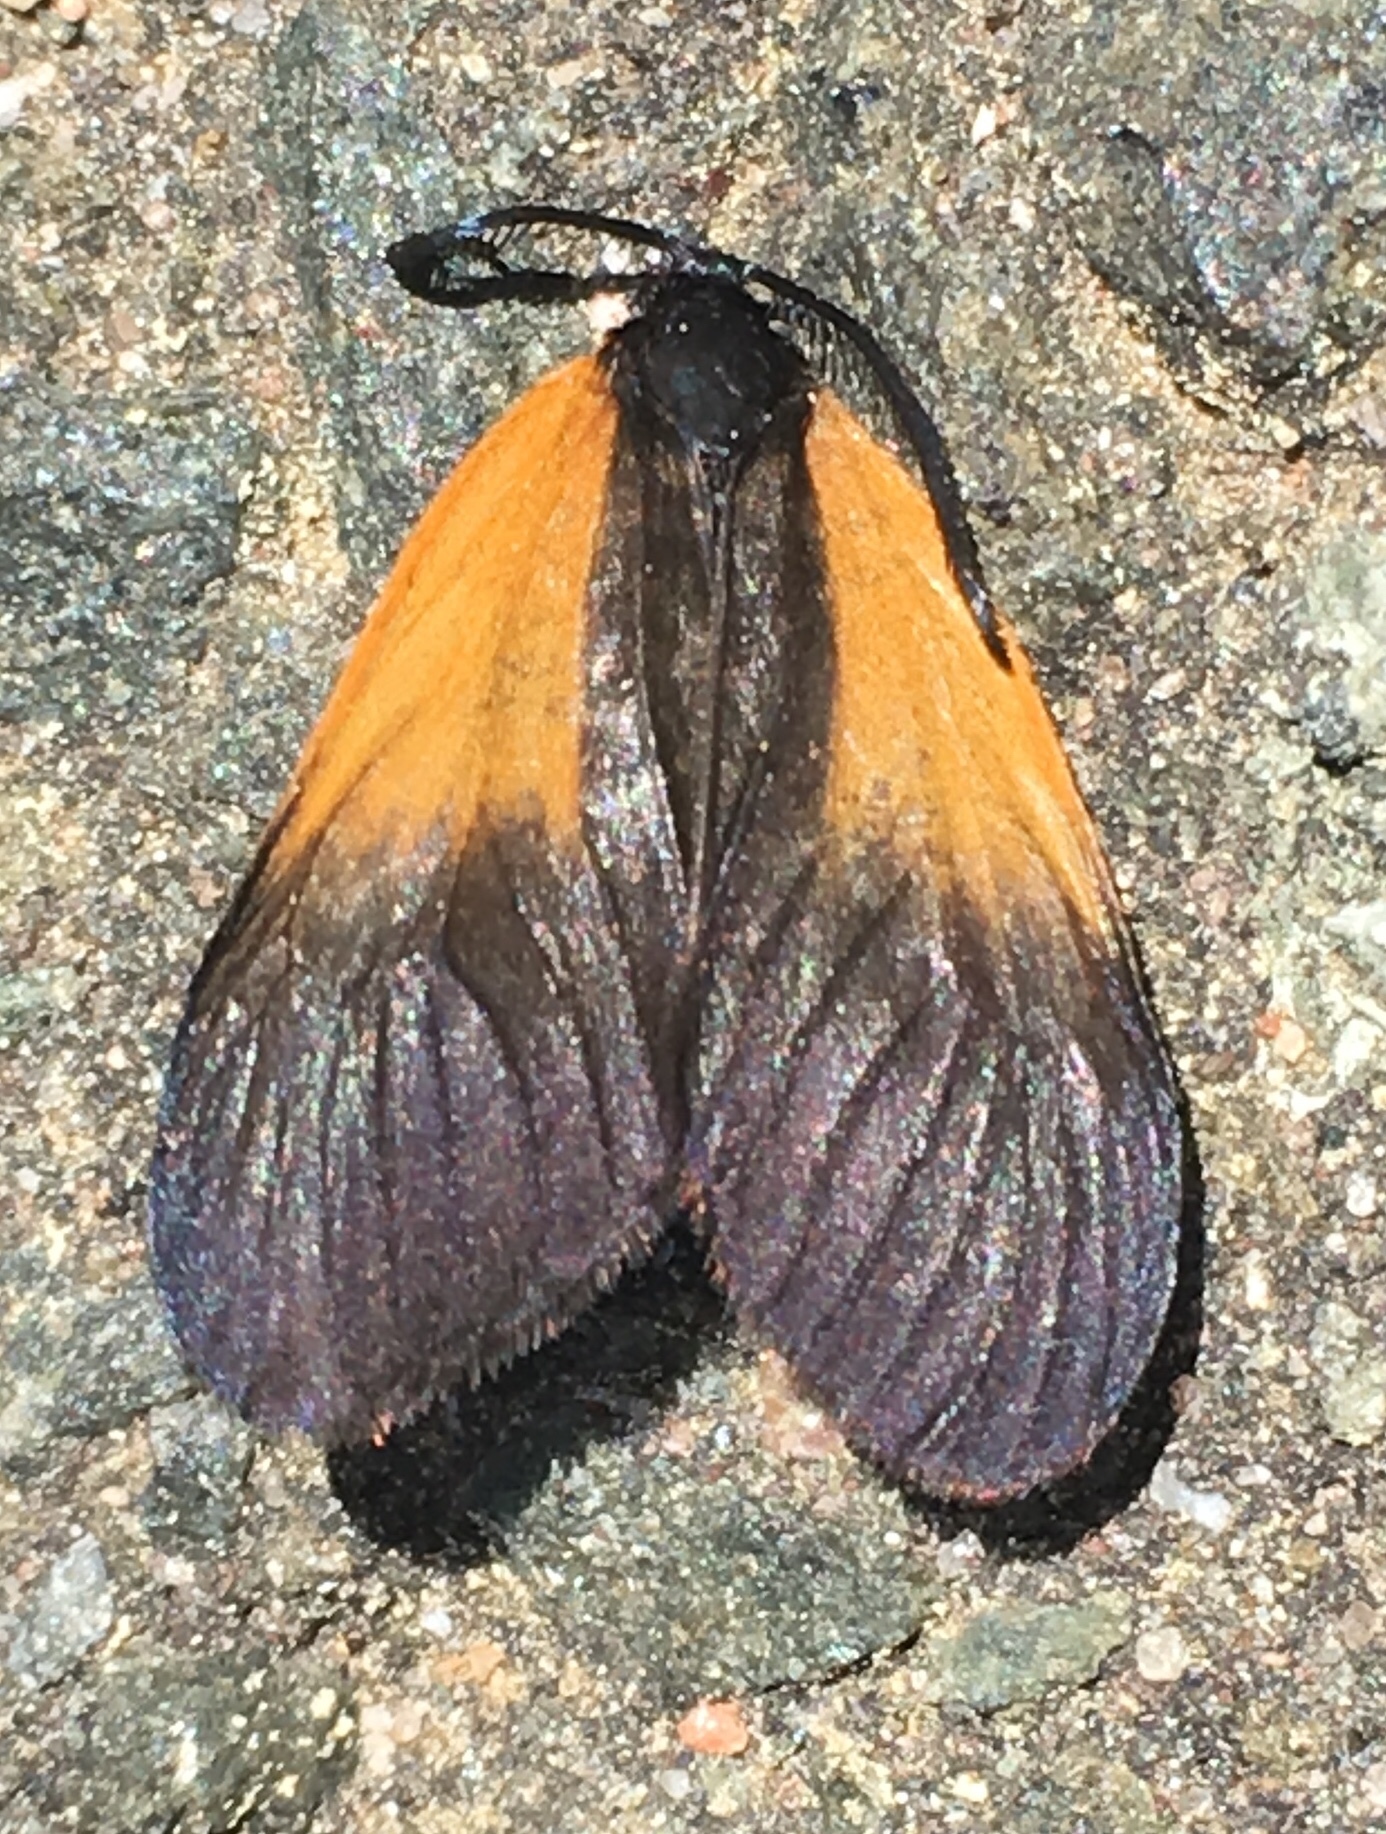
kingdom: Animalia
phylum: Arthropoda
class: Insecta
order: Lepidoptera
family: Zygaenidae
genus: Malthaca
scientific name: Malthaca dimidiata
